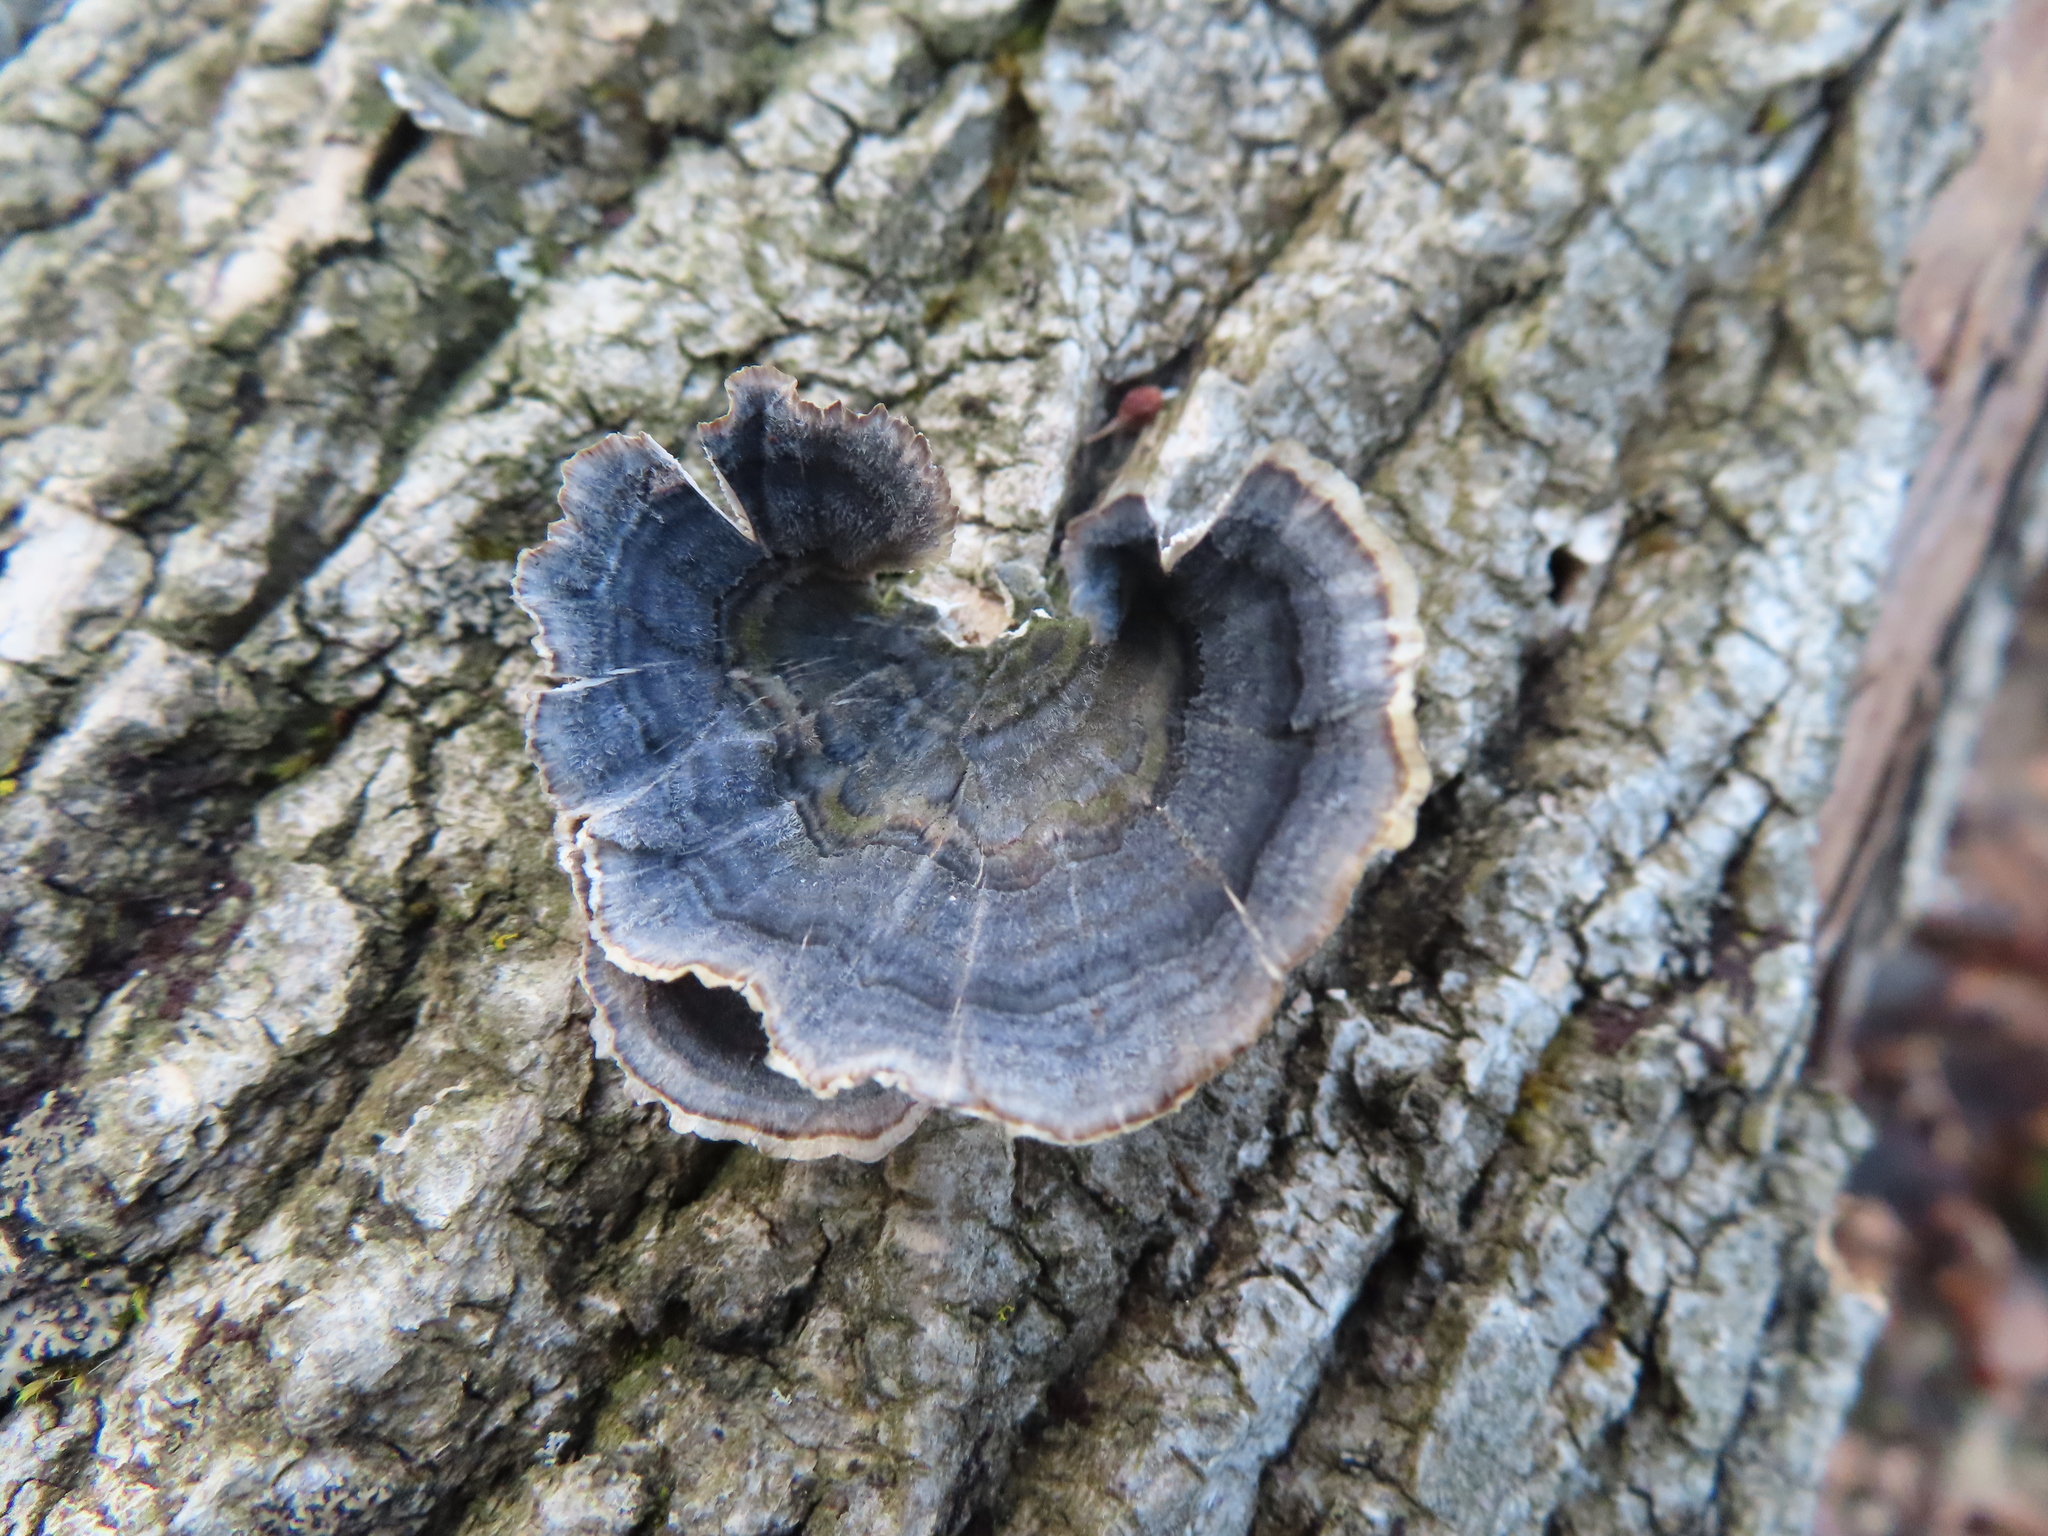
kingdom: Fungi
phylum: Basidiomycota
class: Agaricomycetes
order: Polyporales
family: Polyporaceae
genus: Trametes
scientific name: Trametes versicolor
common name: Turkeytail
